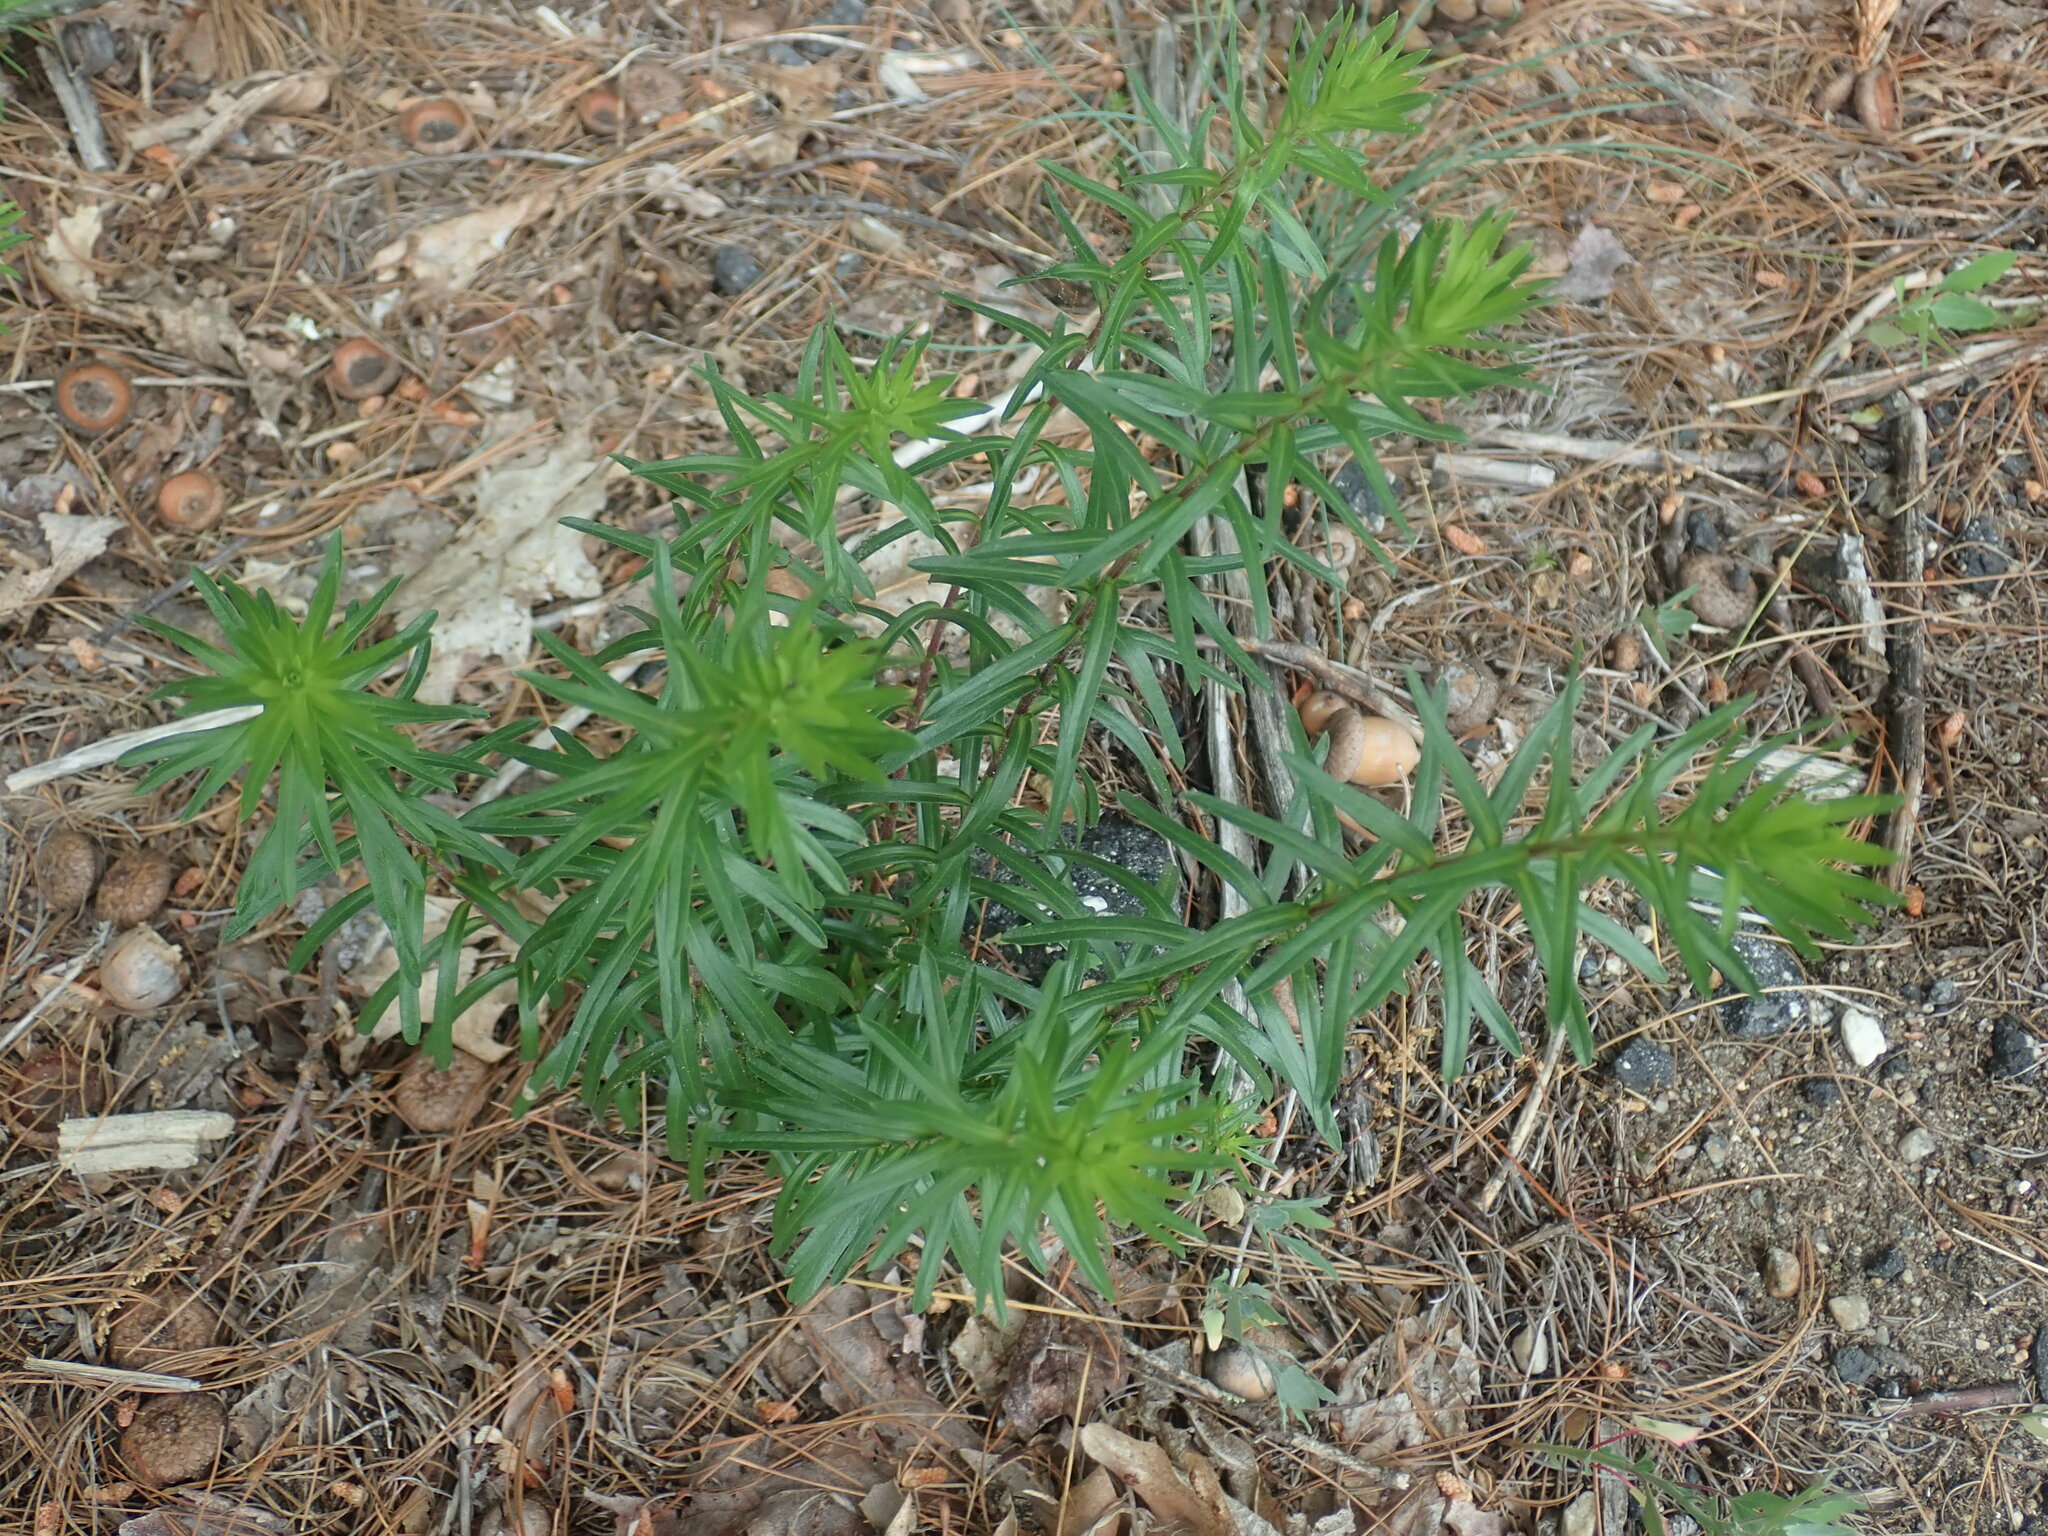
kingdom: Plantae
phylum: Tracheophyta
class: Magnoliopsida
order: Asterales
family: Asteraceae
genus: Ionactis
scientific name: Ionactis linariifolia
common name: Flax-leaf aster
